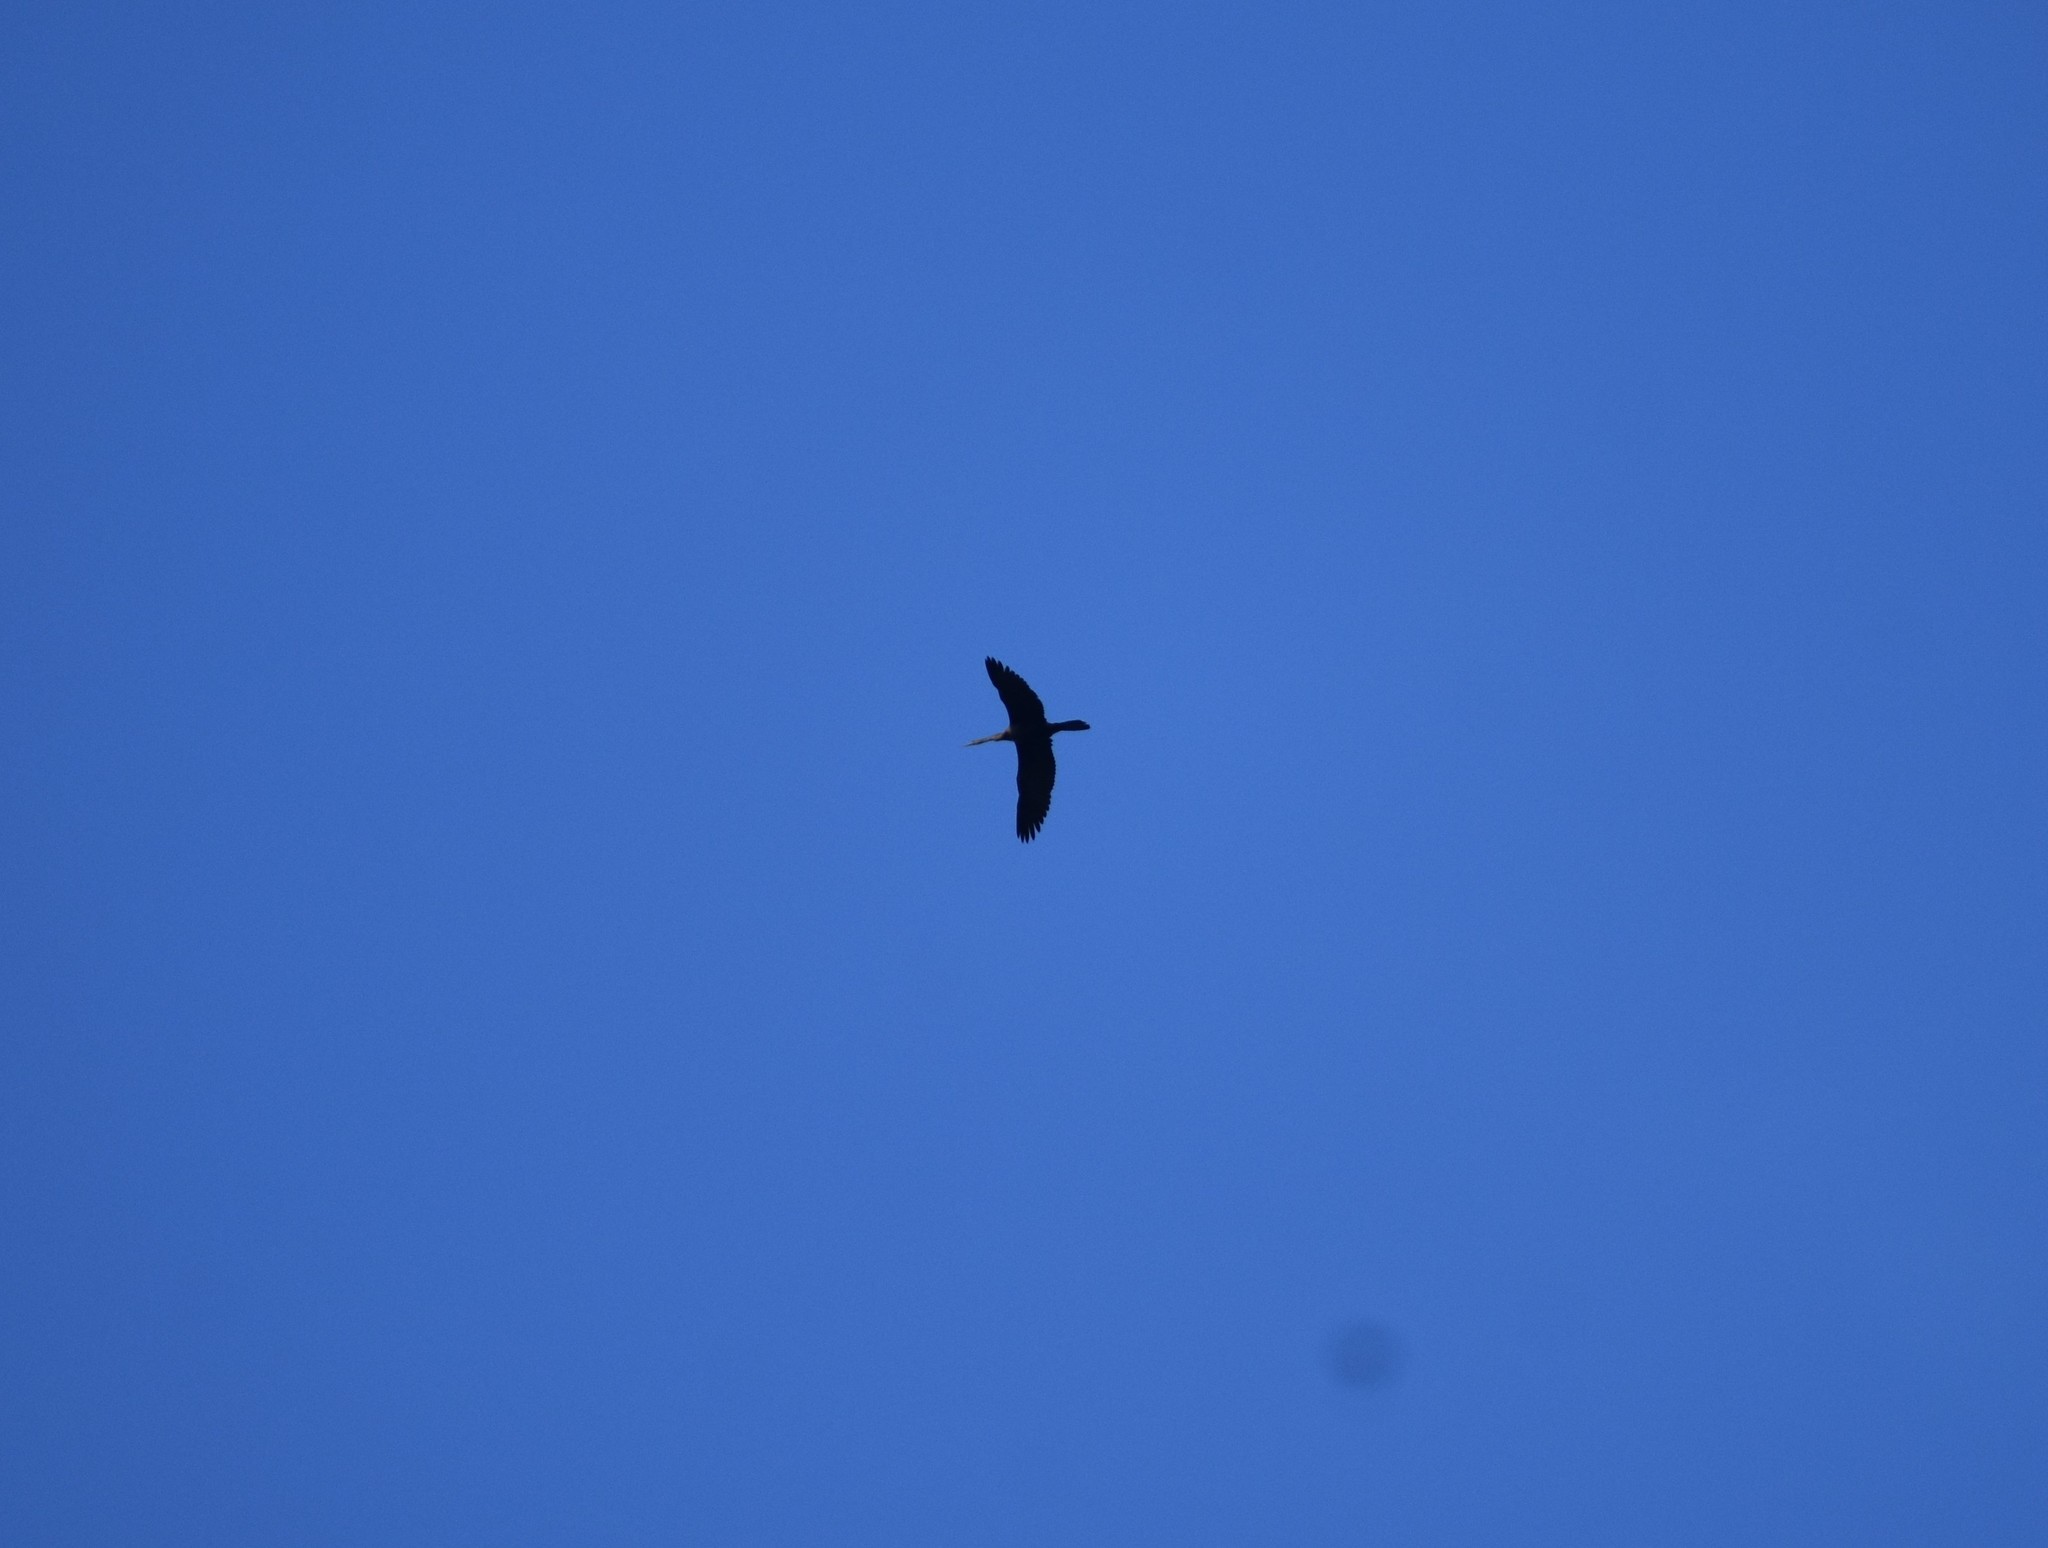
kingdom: Animalia
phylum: Chordata
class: Aves
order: Suliformes
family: Anhingidae
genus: Anhinga
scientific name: Anhinga rufa
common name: African darter
